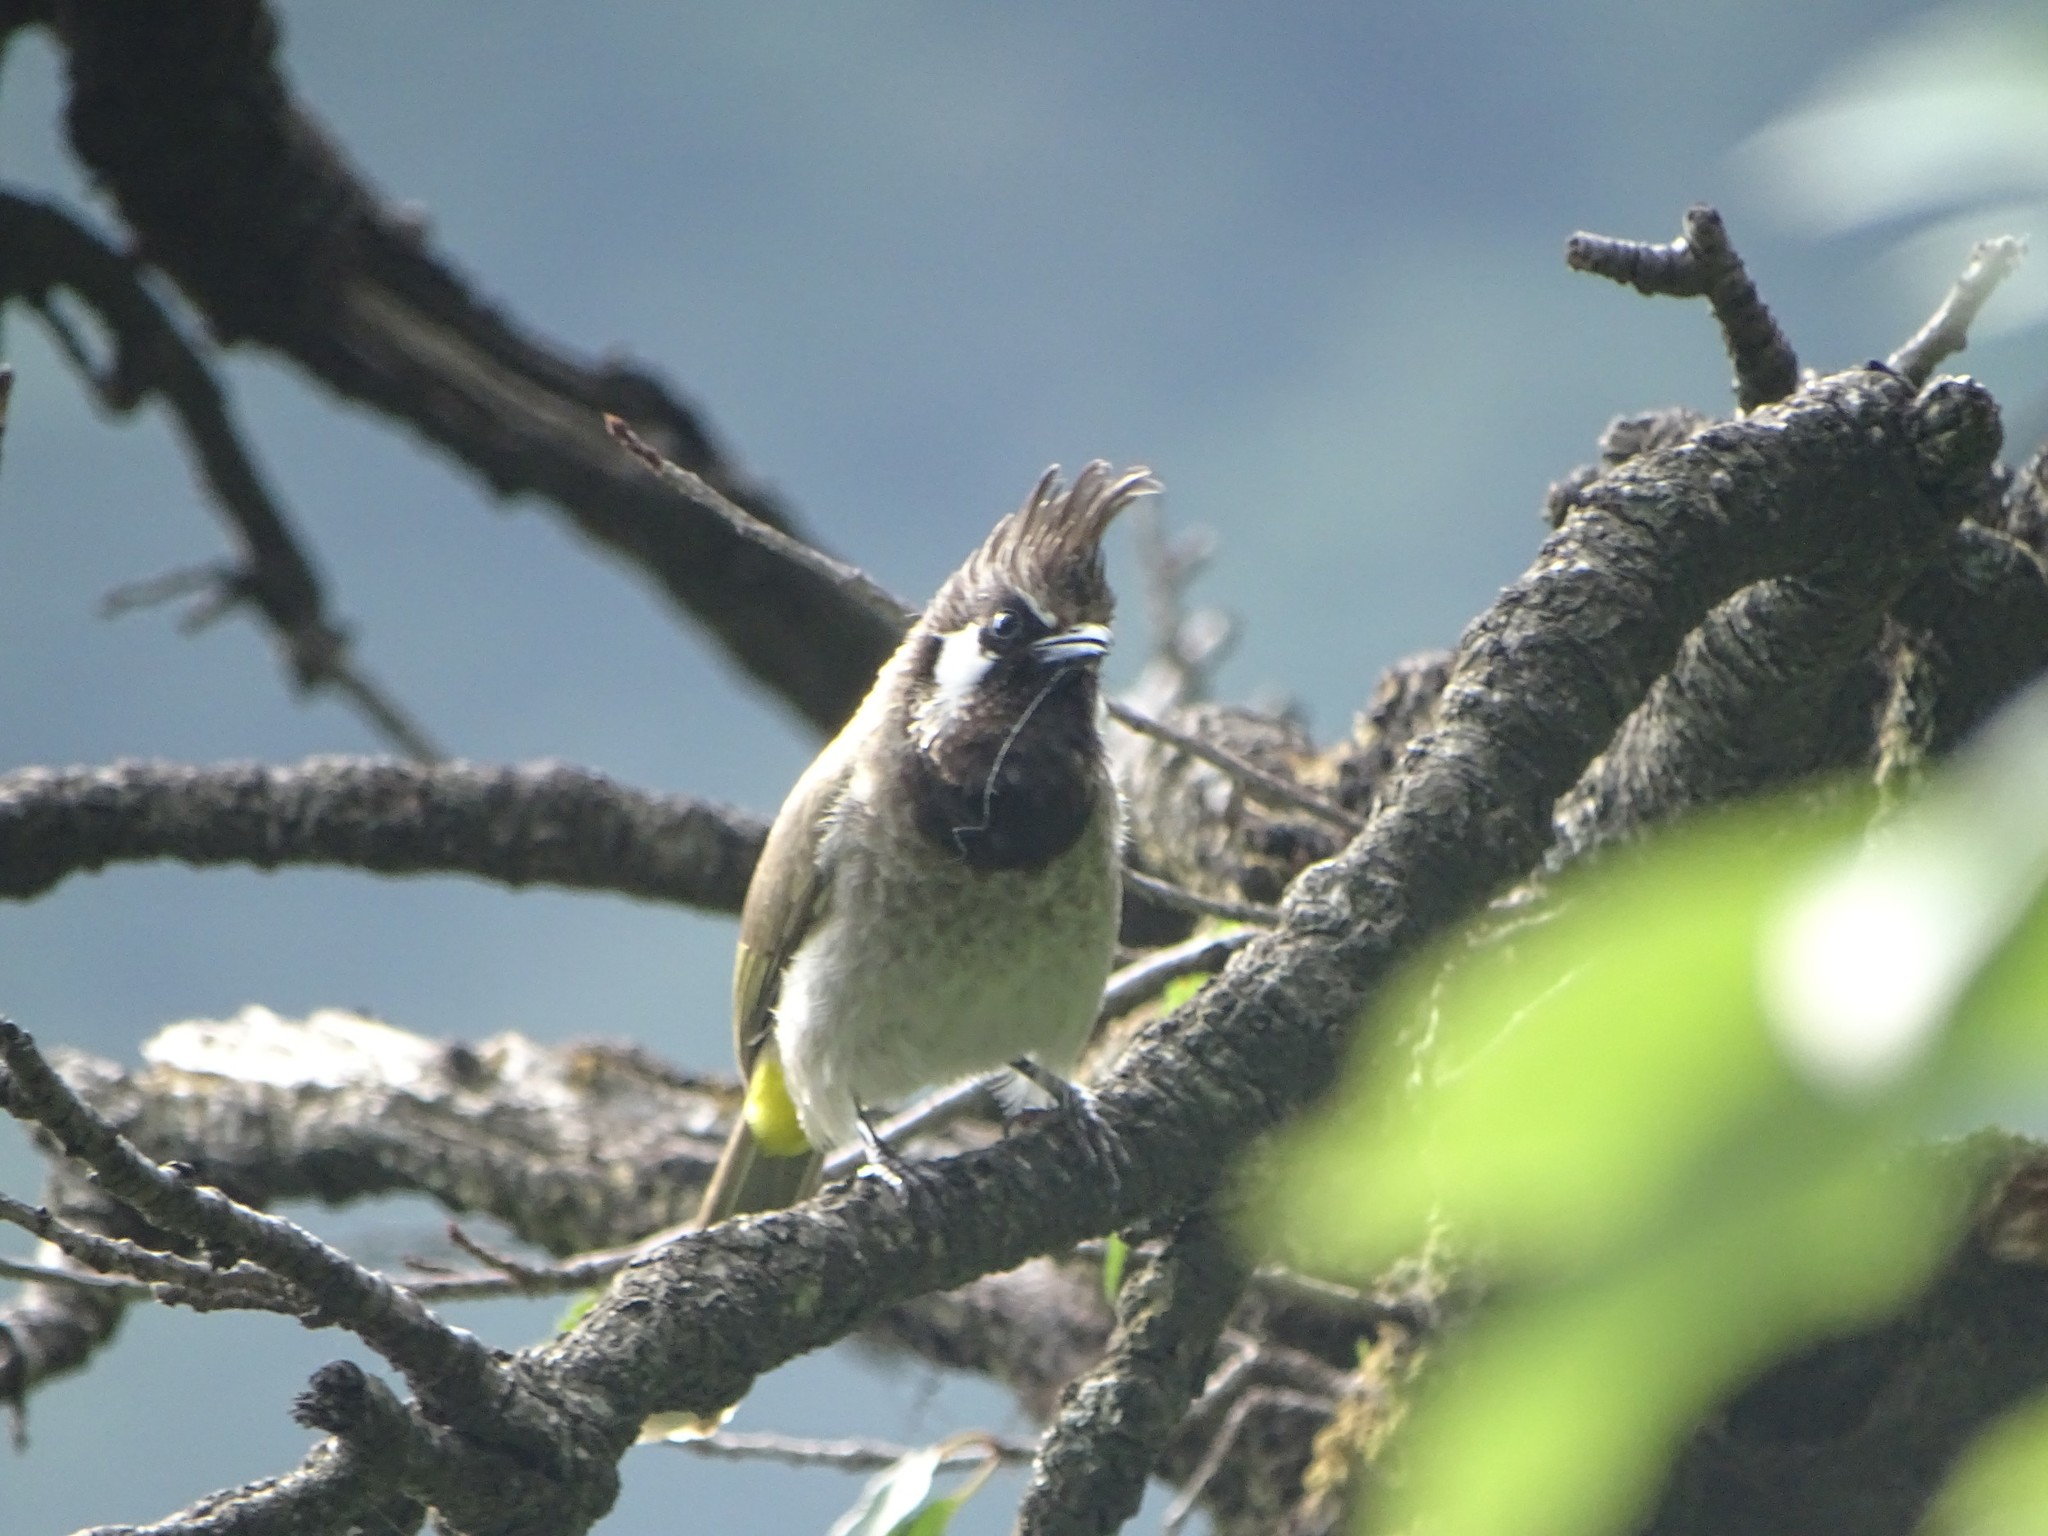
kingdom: Animalia
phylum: Chordata
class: Aves
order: Passeriformes
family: Pycnonotidae
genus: Pycnonotus
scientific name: Pycnonotus leucogenys
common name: Himalayan bulbul
